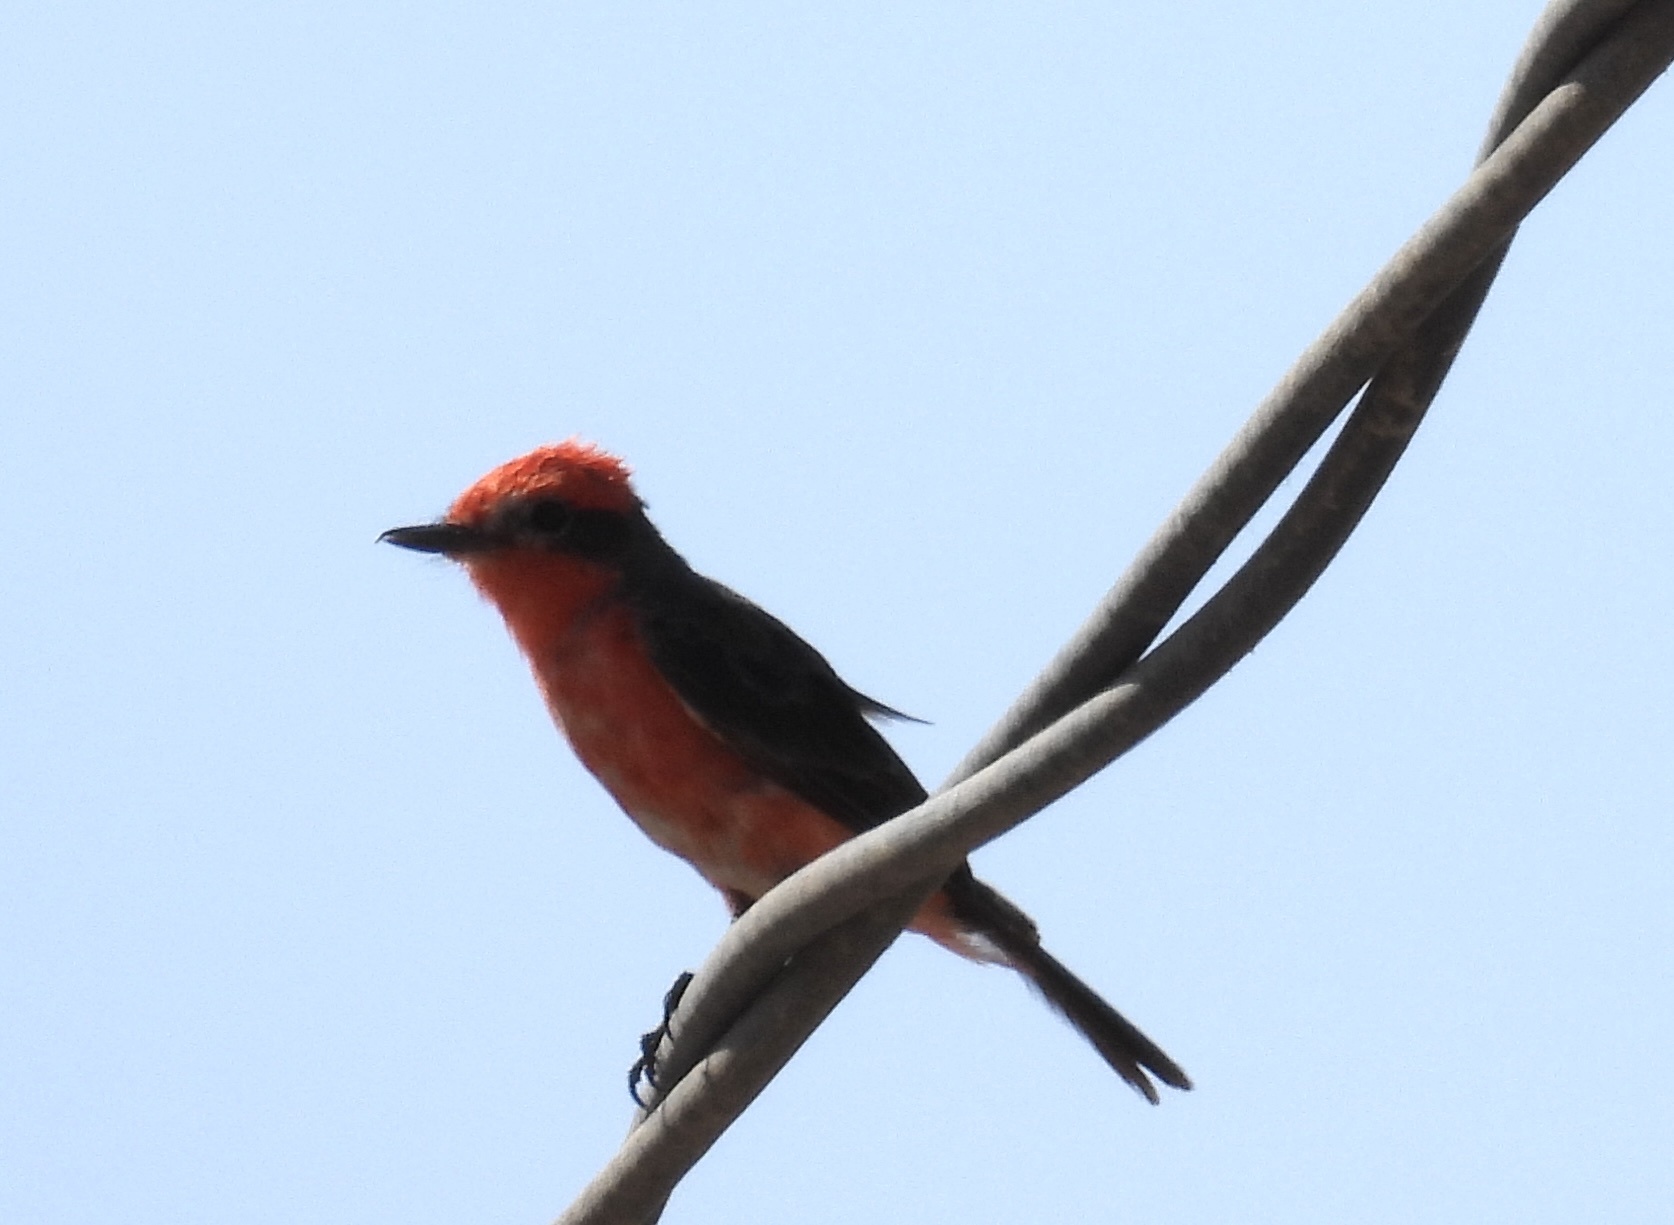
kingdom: Animalia
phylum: Chordata
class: Aves
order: Passeriformes
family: Tyrannidae
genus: Pyrocephalus
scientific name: Pyrocephalus rubinus
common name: Vermilion flycatcher
